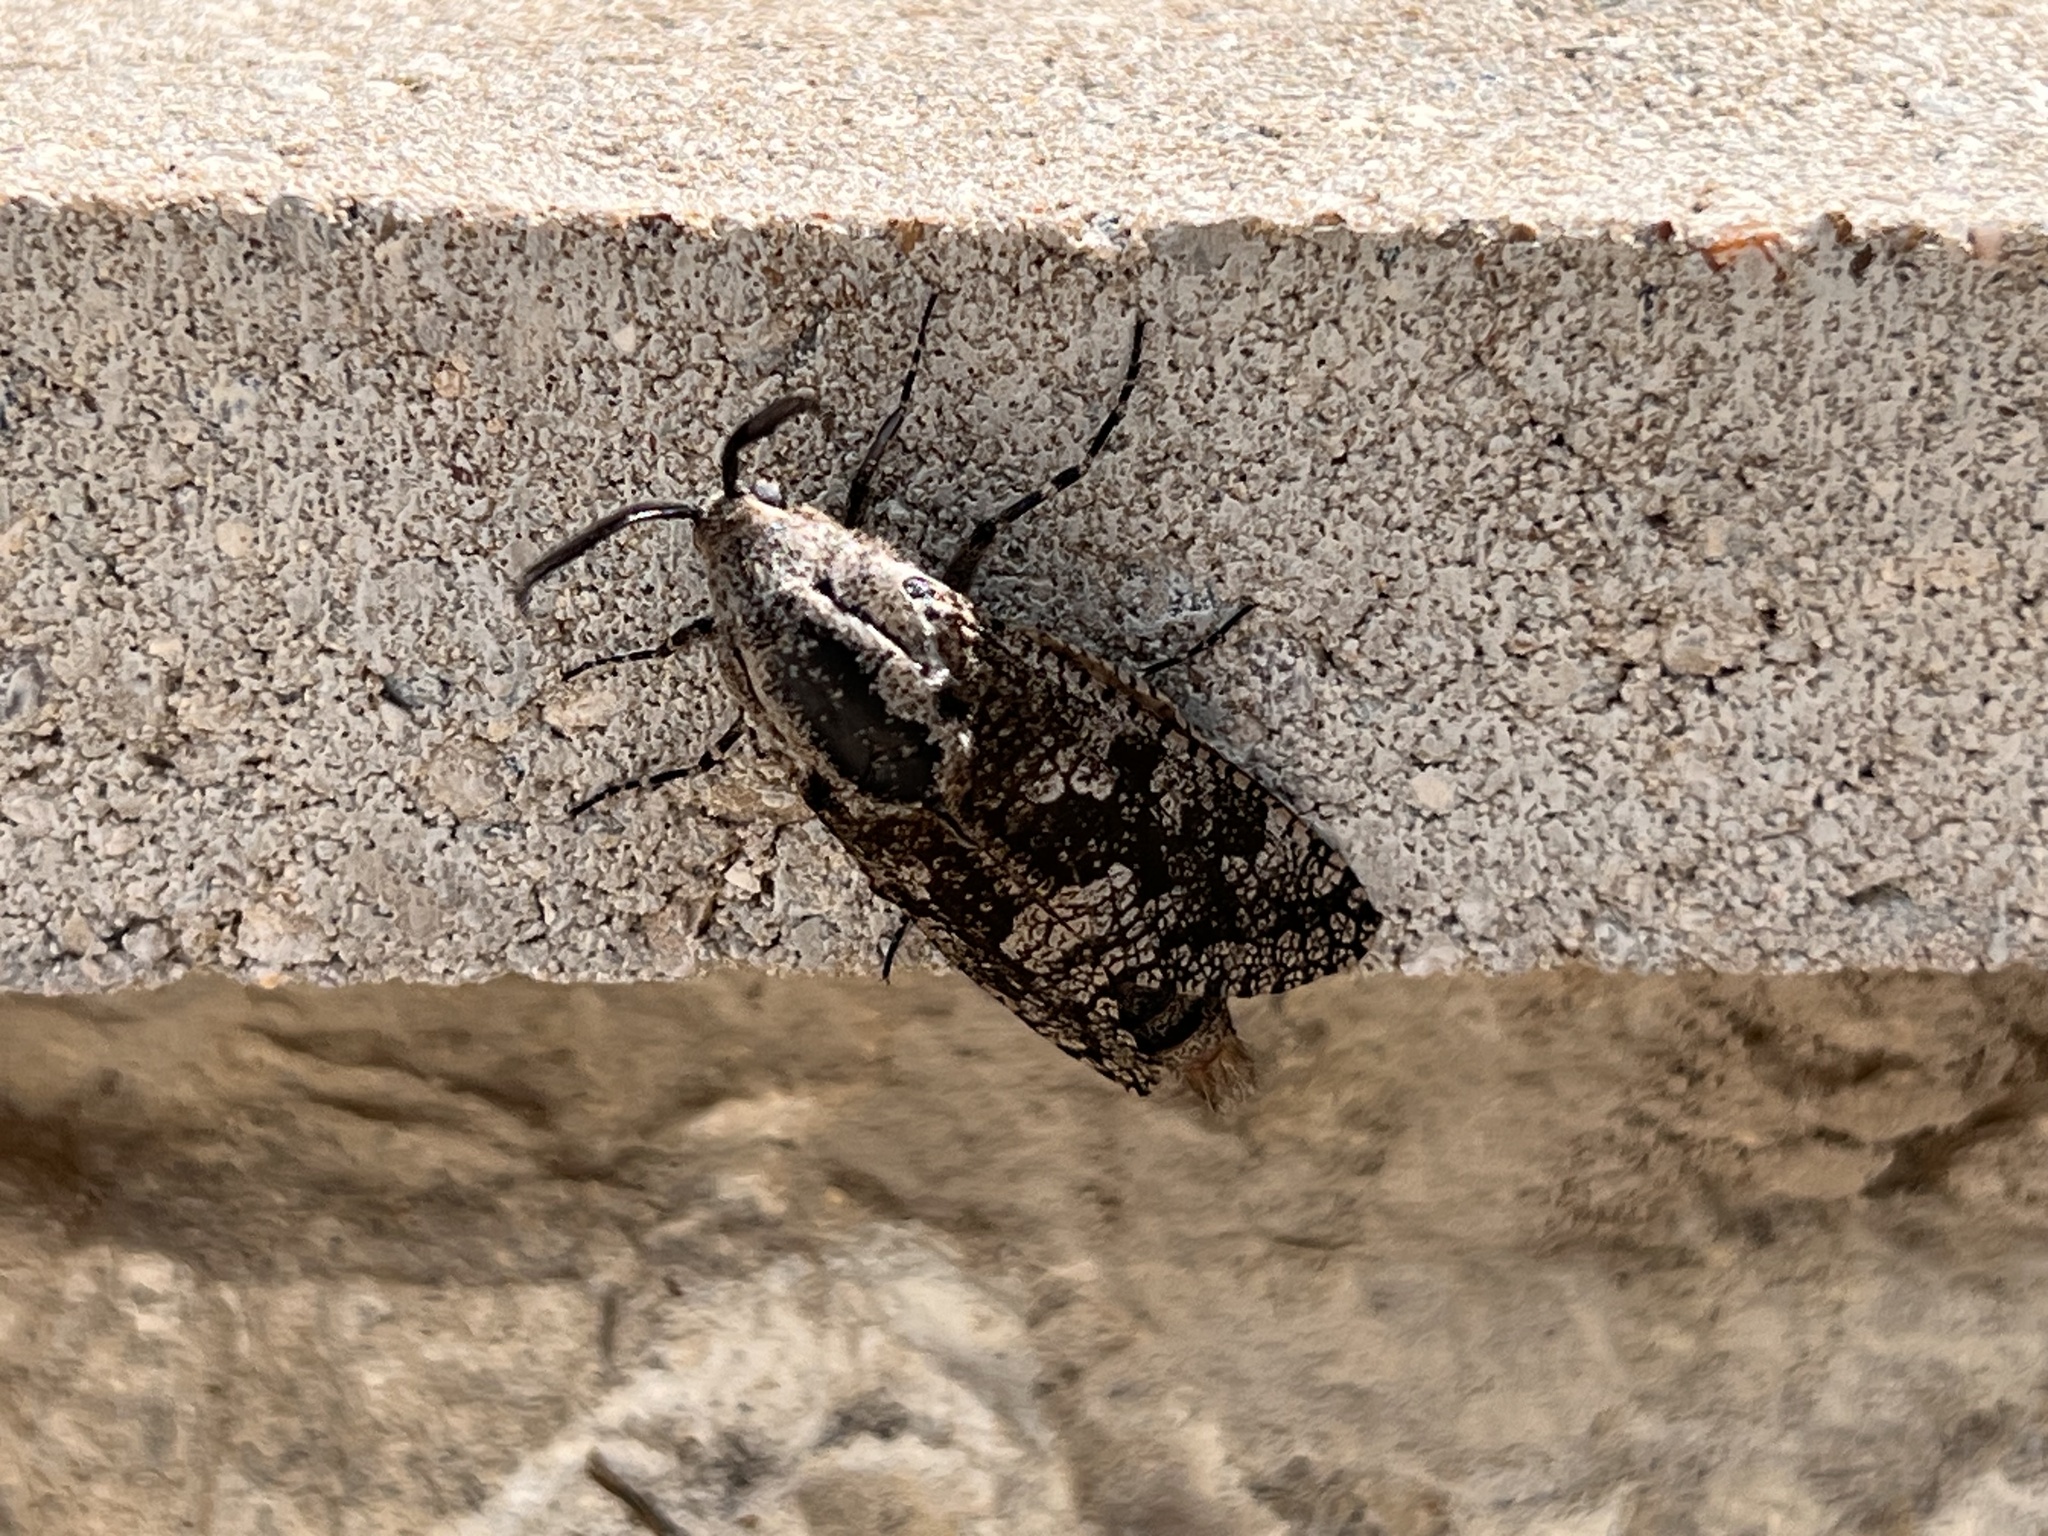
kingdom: Animalia
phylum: Arthropoda
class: Insecta
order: Lepidoptera
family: Cossidae
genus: Prionoxystus
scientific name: Prionoxystus robiniae
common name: Carpenterworm
